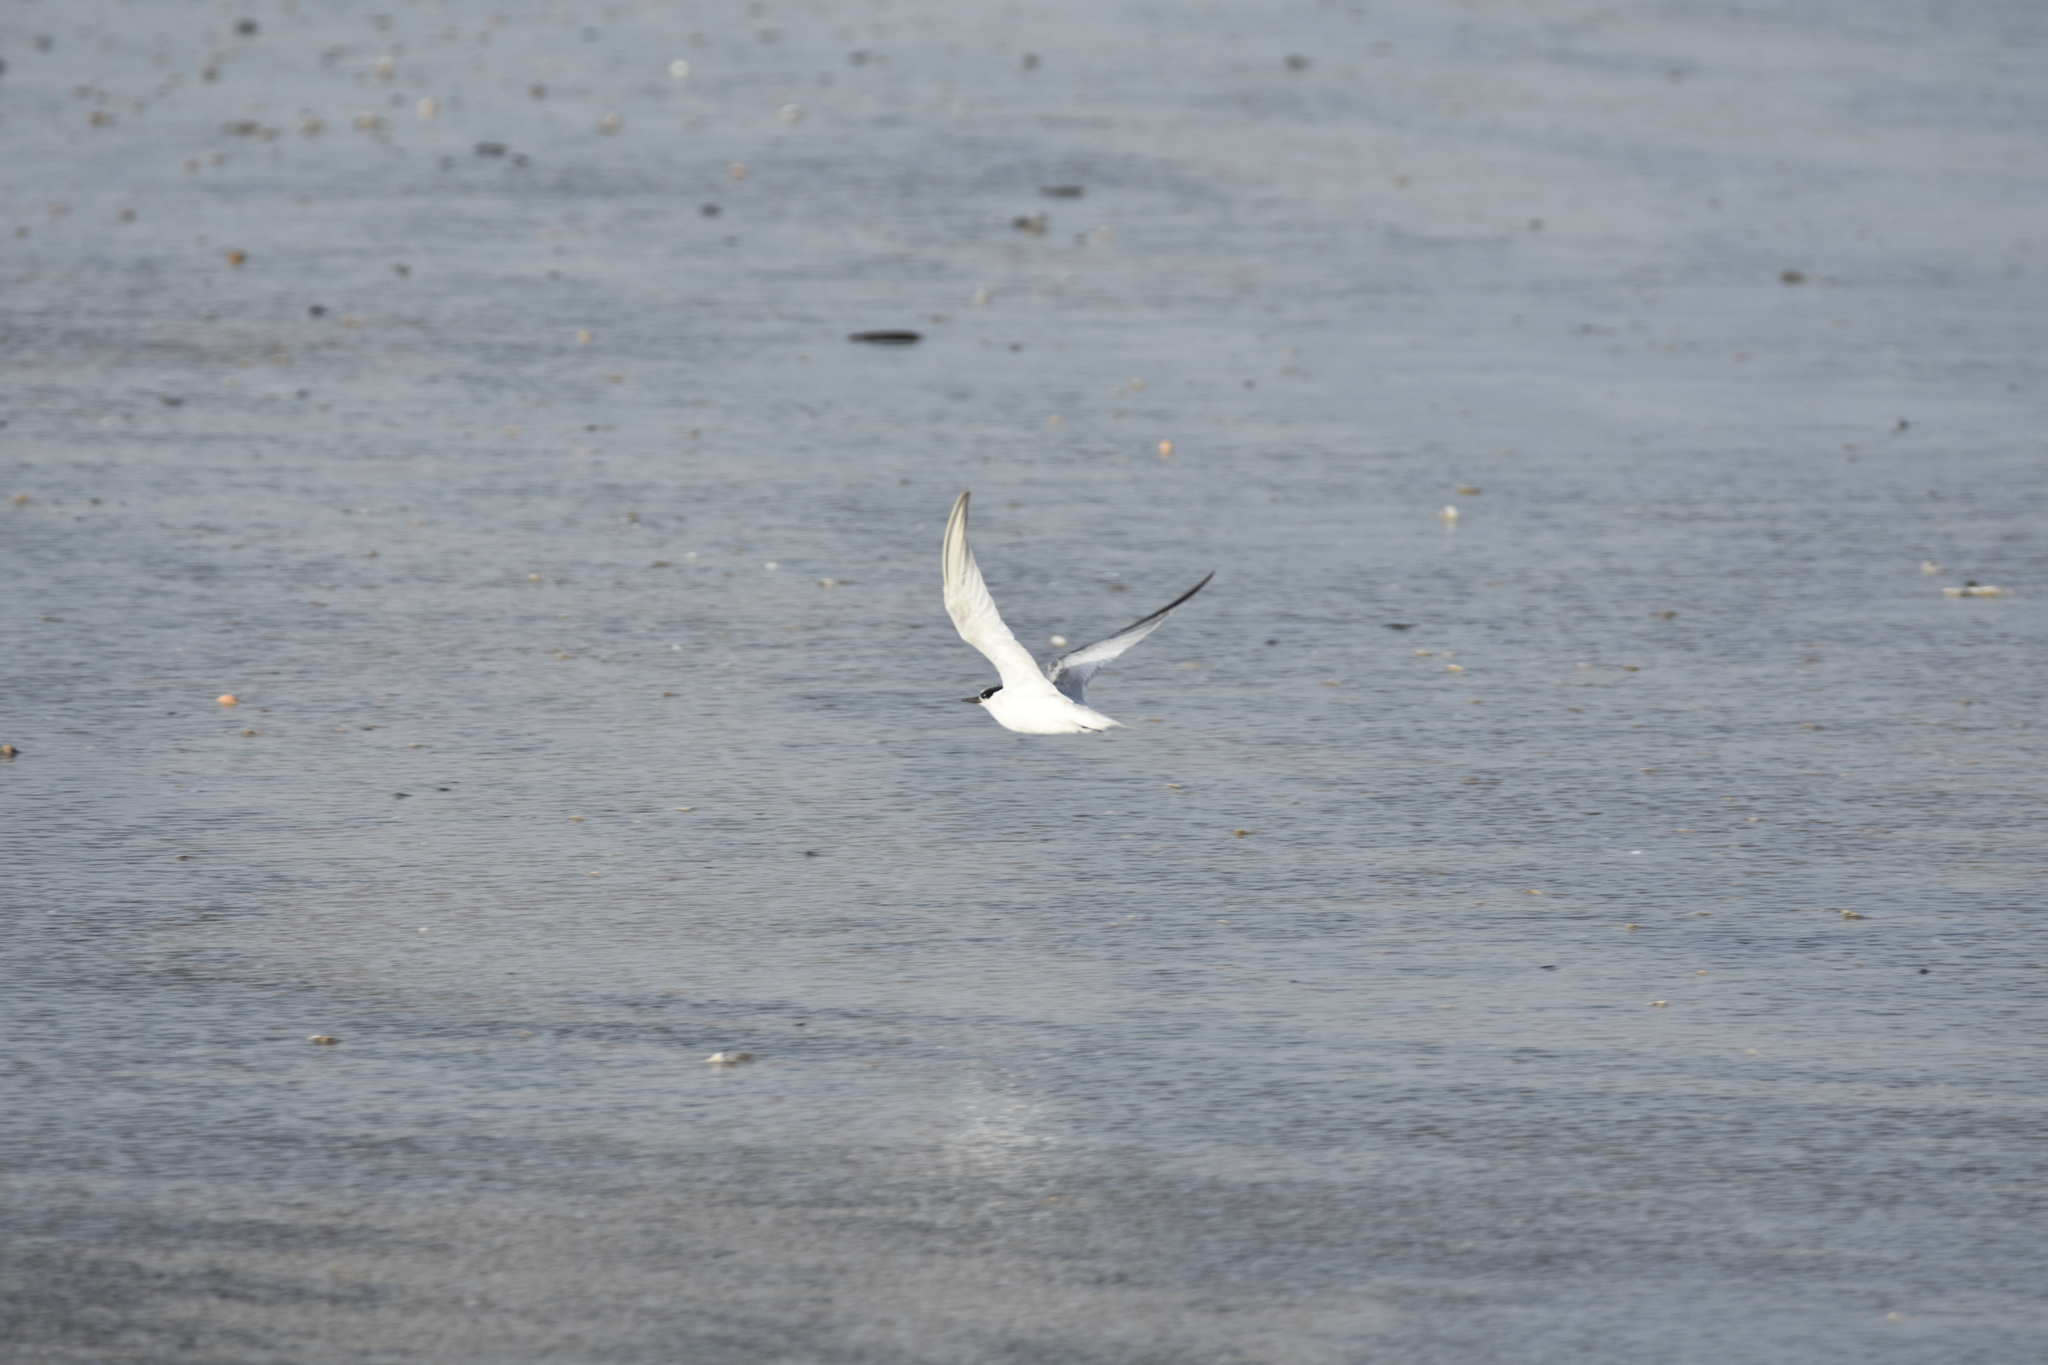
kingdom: Animalia
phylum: Chordata
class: Aves
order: Charadriiformes
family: Laridae
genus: Sternula
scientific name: Sternula antillarum
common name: Least tern
